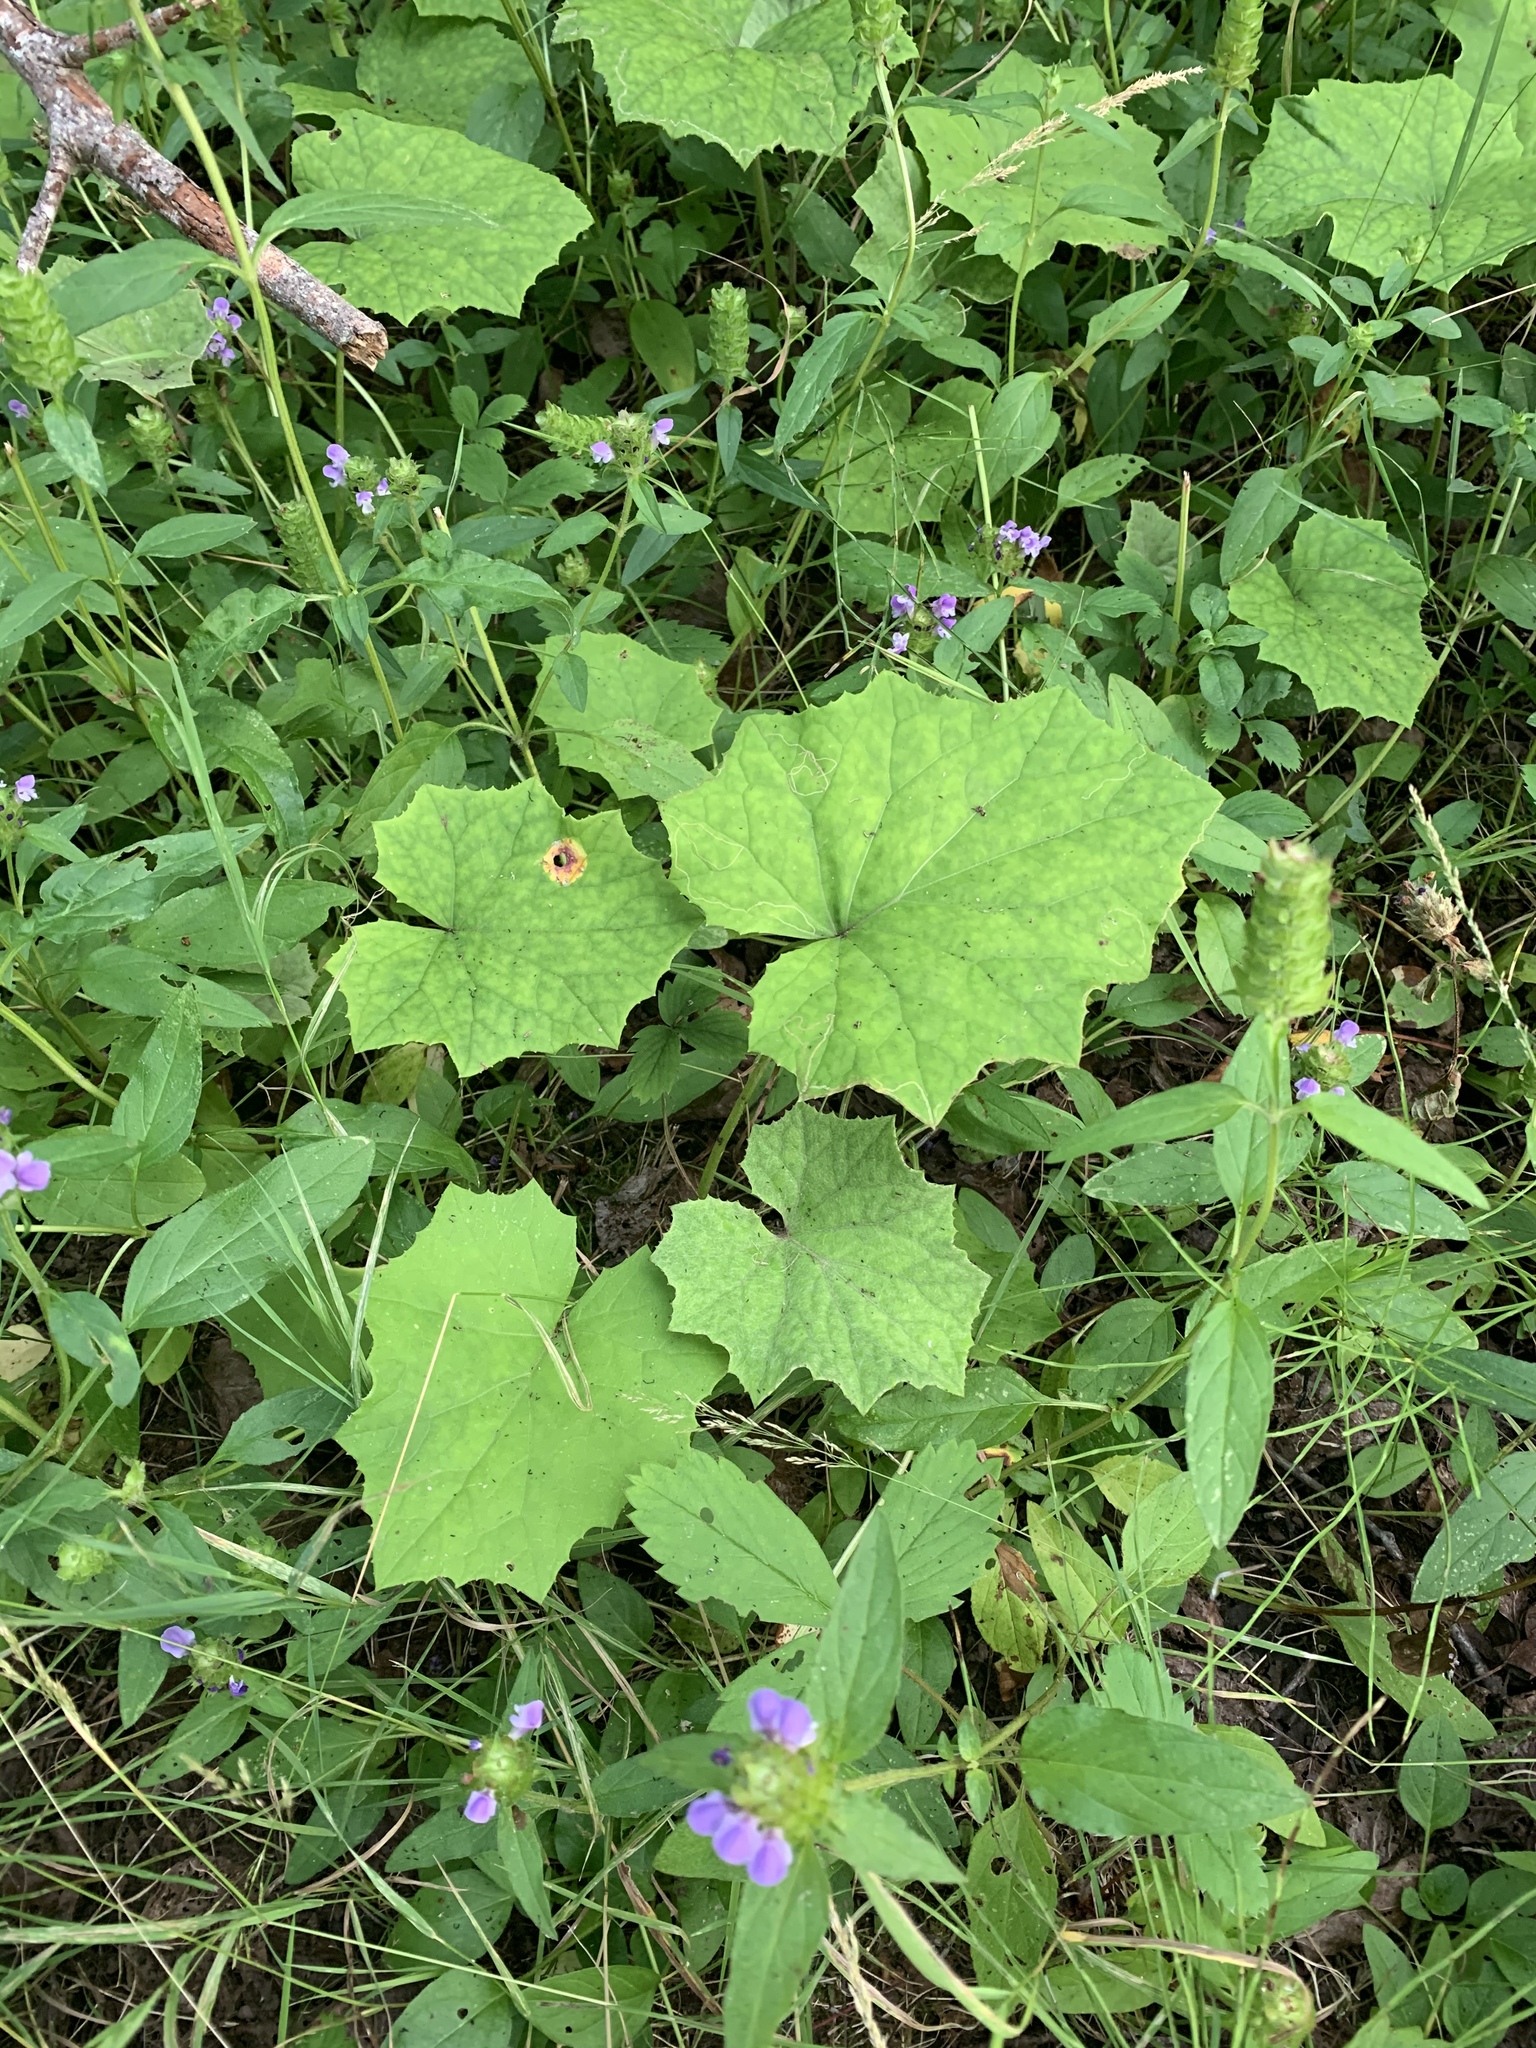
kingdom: Plantae
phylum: Tracheophyta
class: Magnoliopsida
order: Asterales
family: Asteraceae
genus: Tussilago
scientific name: Tussilago farfara
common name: Coltsfoot
